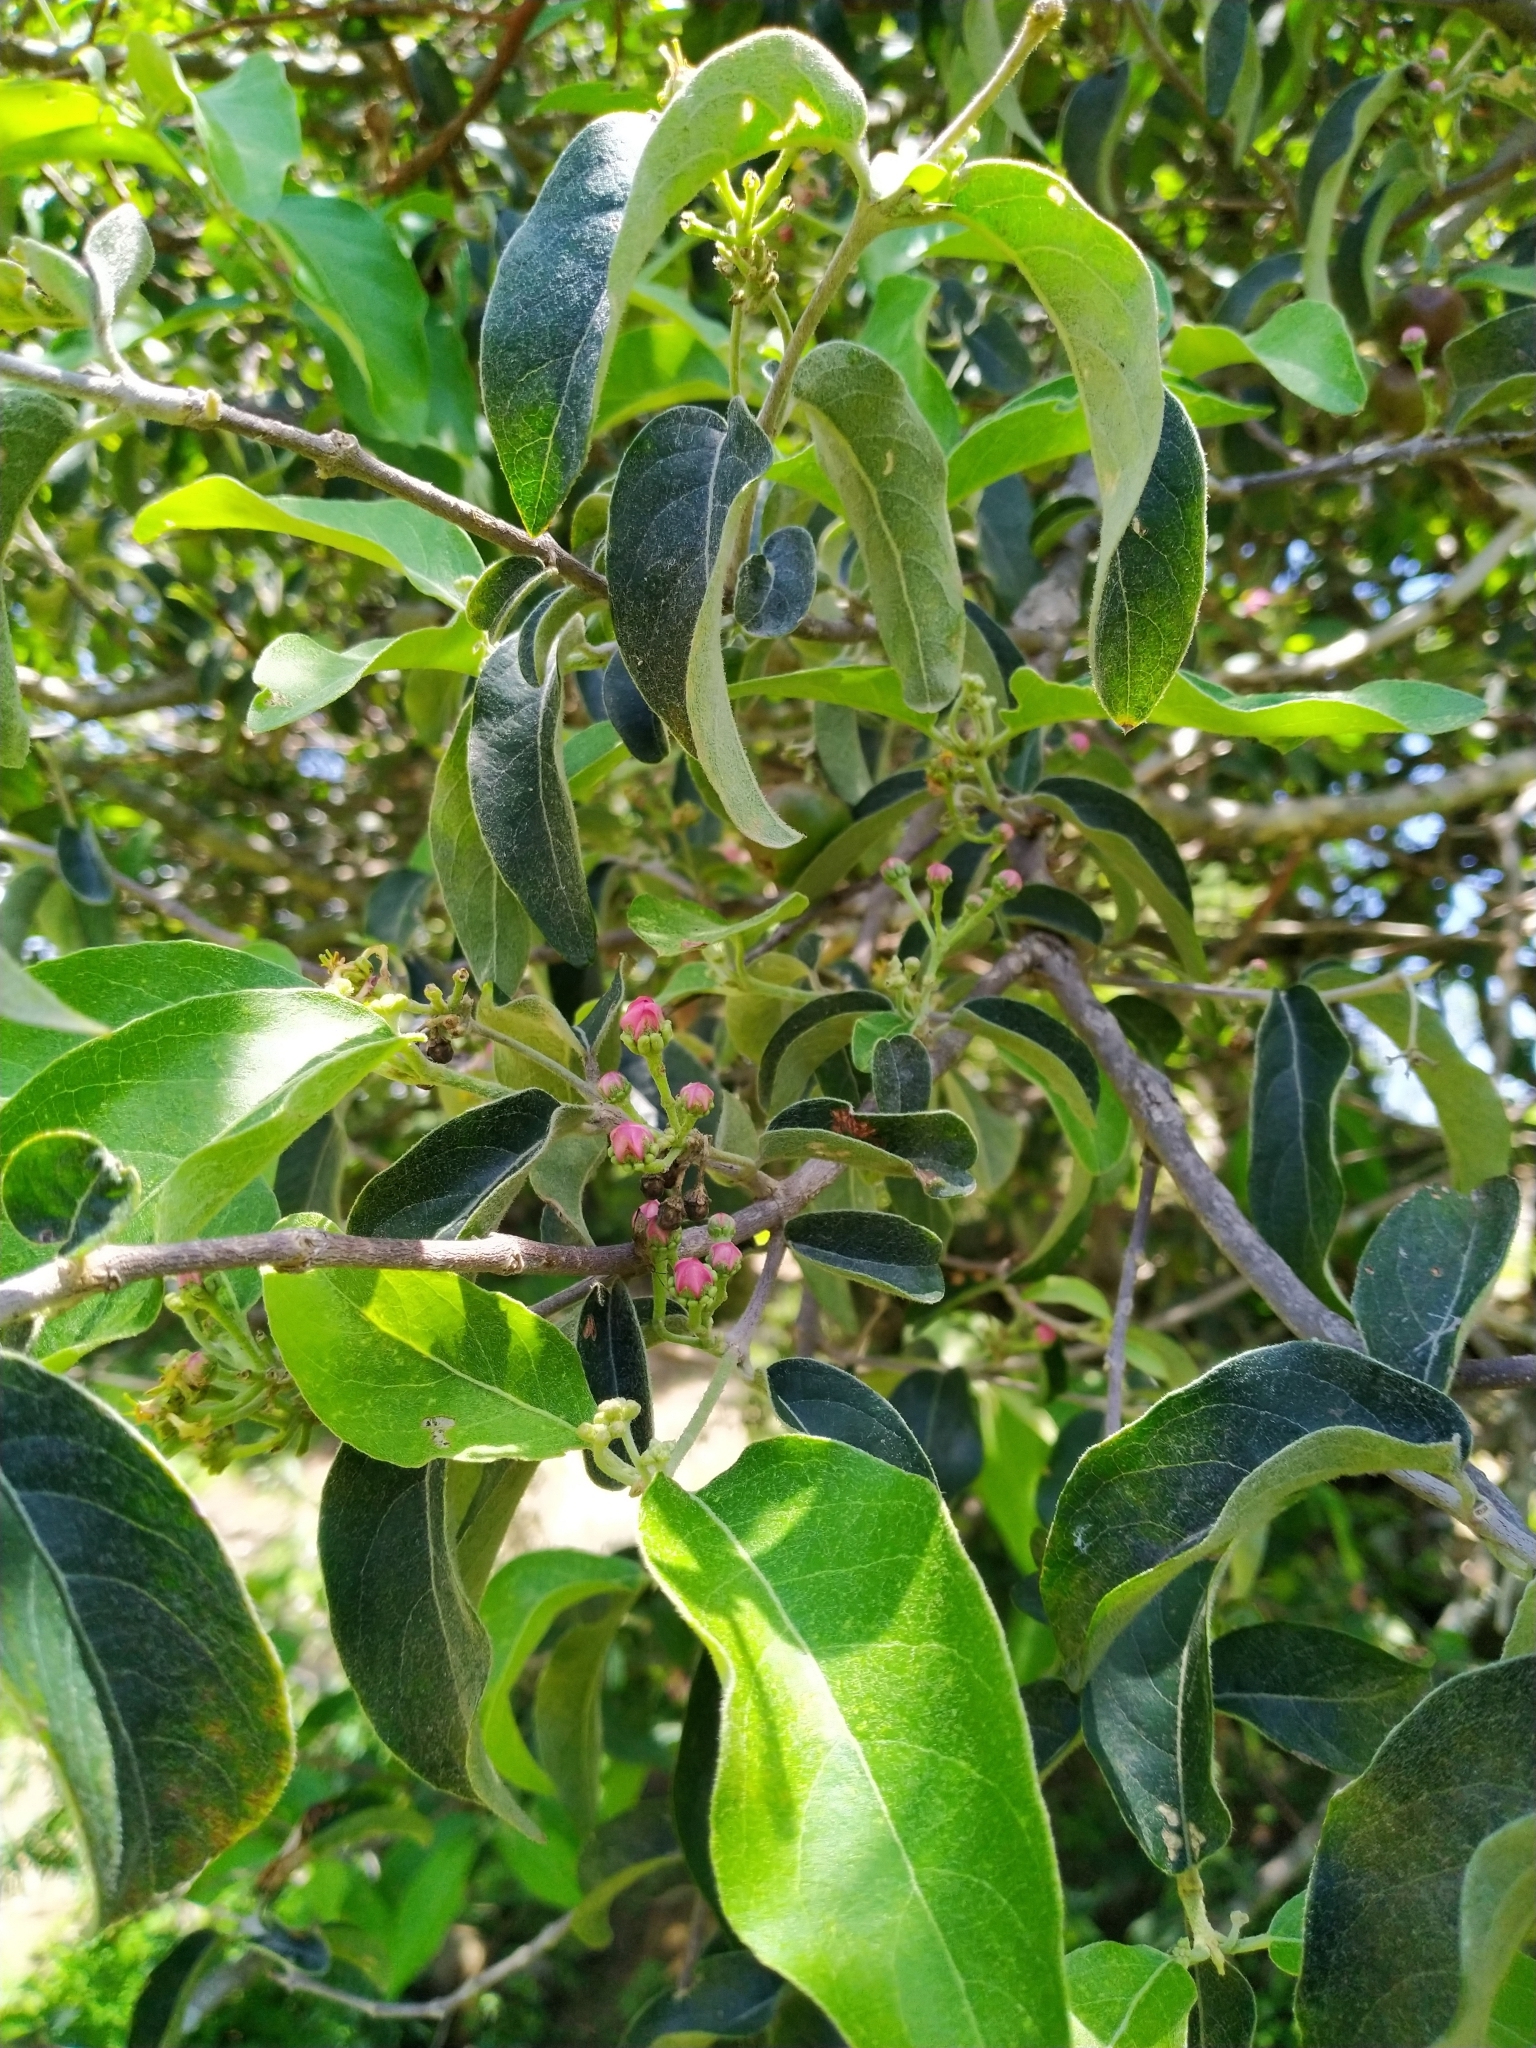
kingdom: Plantae
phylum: Tracheophyta
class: Magnoliopsida
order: Malpighiales
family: Malpighiaceae
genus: Malpighia
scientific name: Malpighia mexicana
